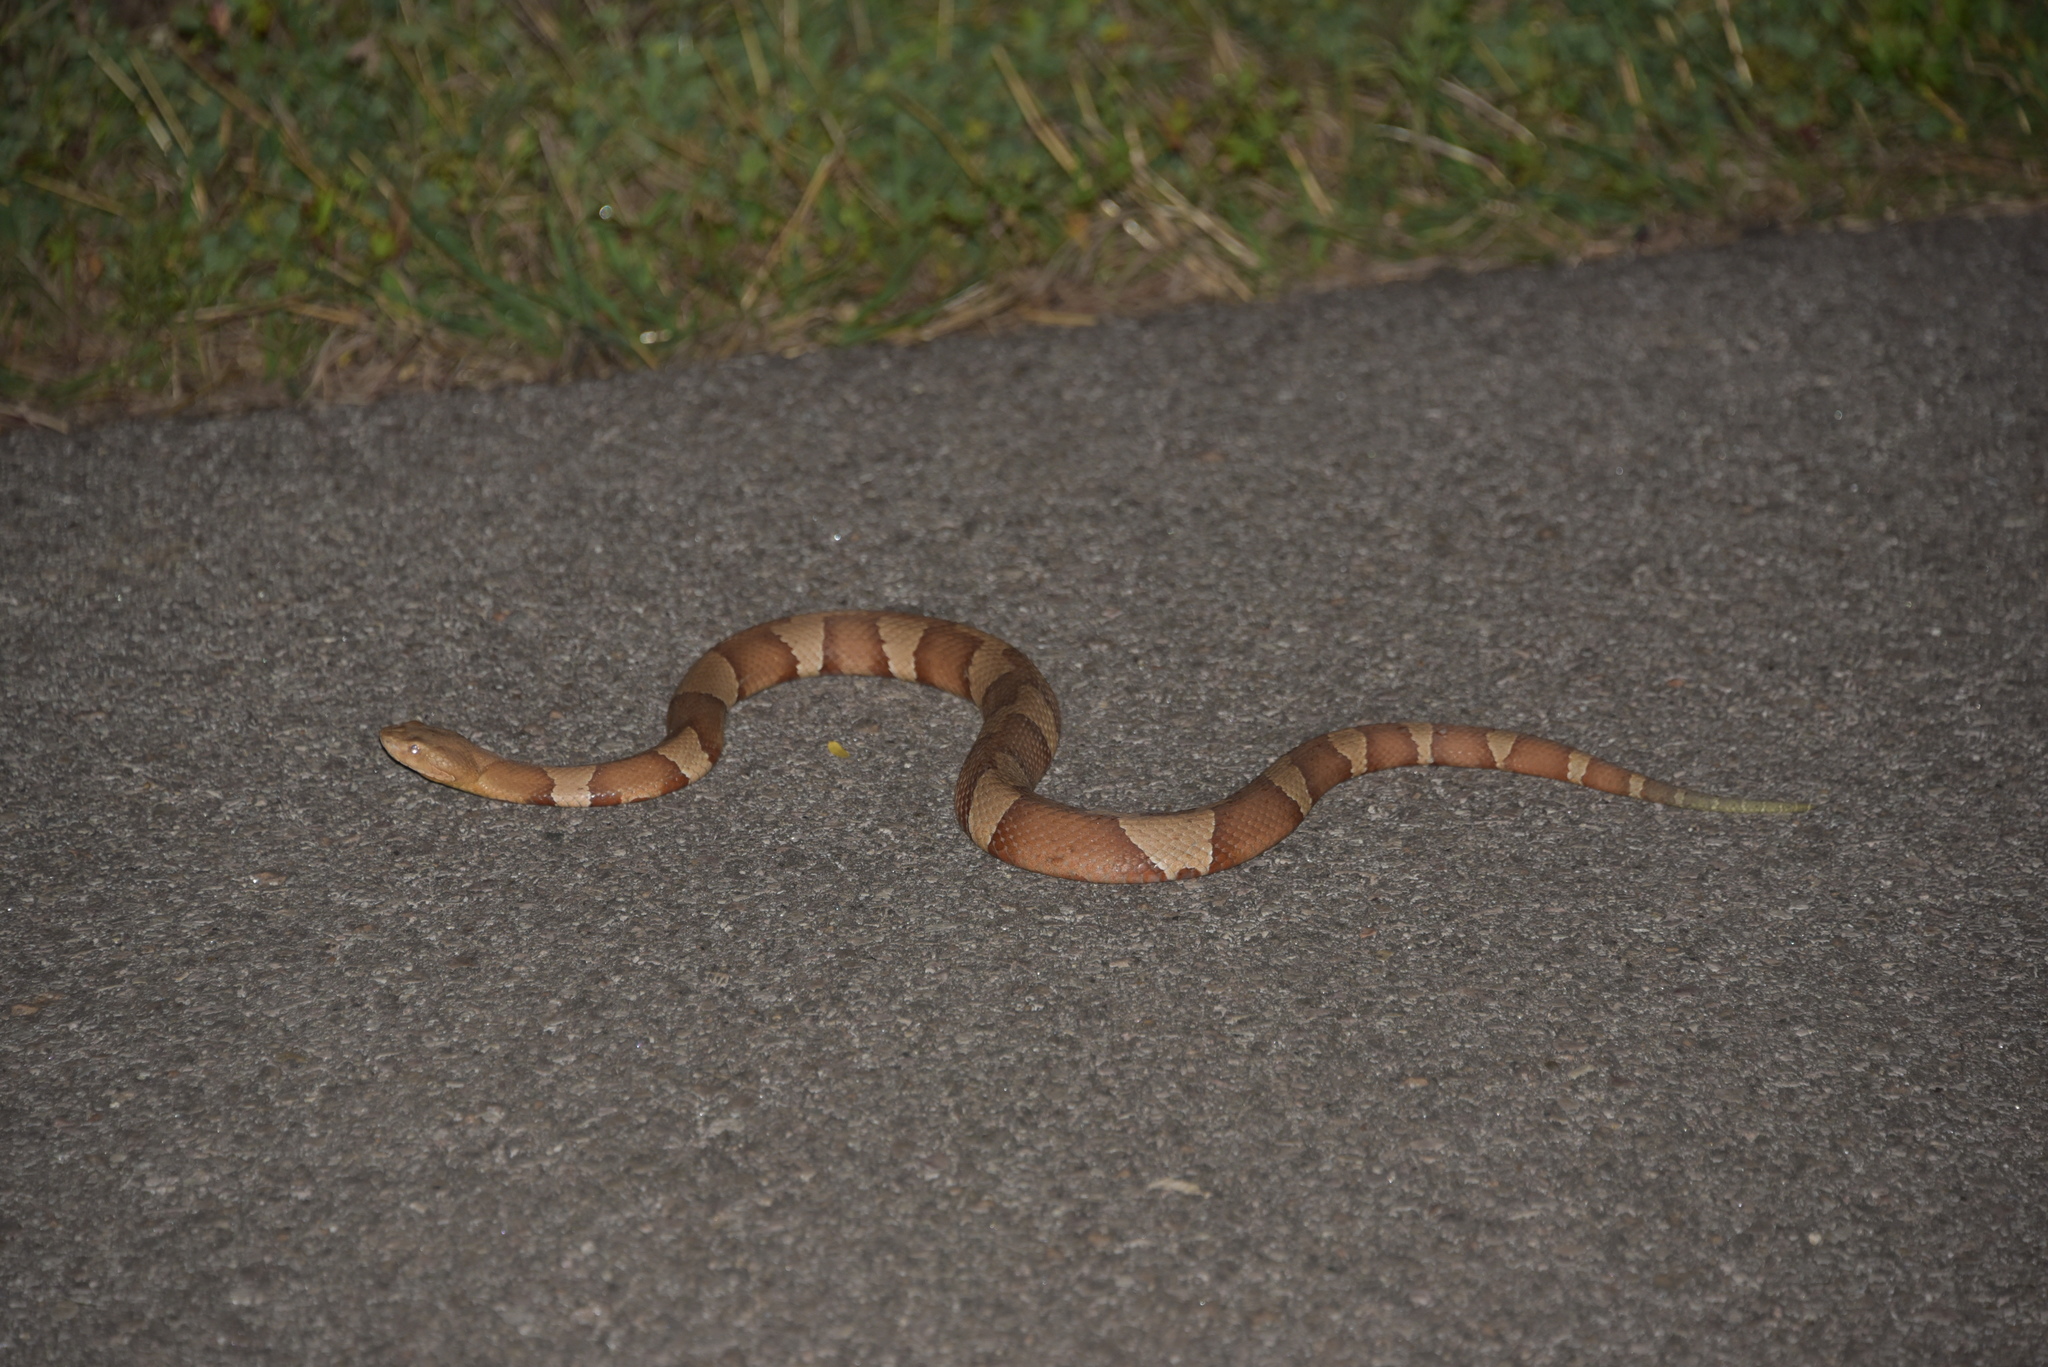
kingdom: Animalia
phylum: Chordata
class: Squamata
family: Viperidae
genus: Agkistrodon
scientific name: Agkistrodon laticinctus
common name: Broad-banded copperhead
